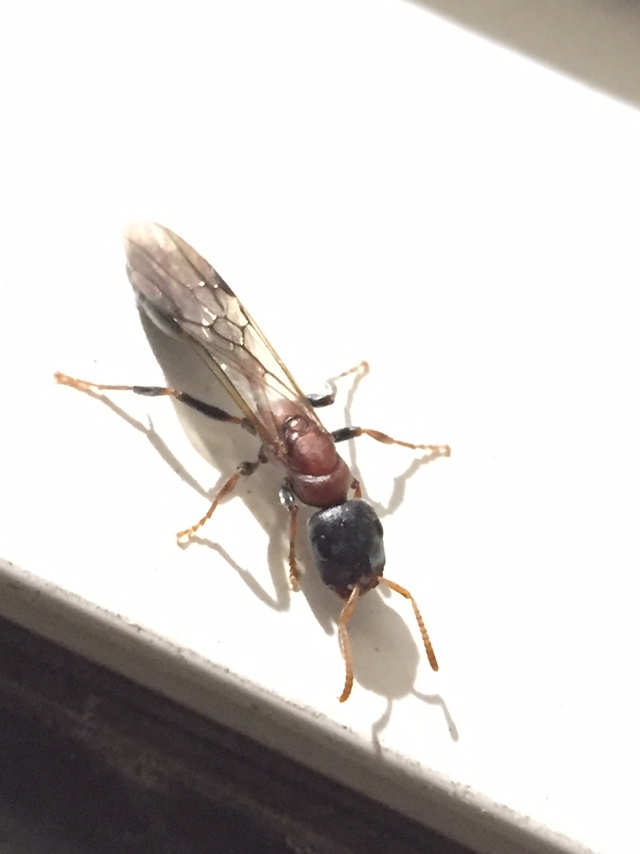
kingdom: Animalia
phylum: Arthropoda
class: Insecta
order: Hymenoptera
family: Formicidae
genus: Tetraponera
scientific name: Tetraponera rufonigra
